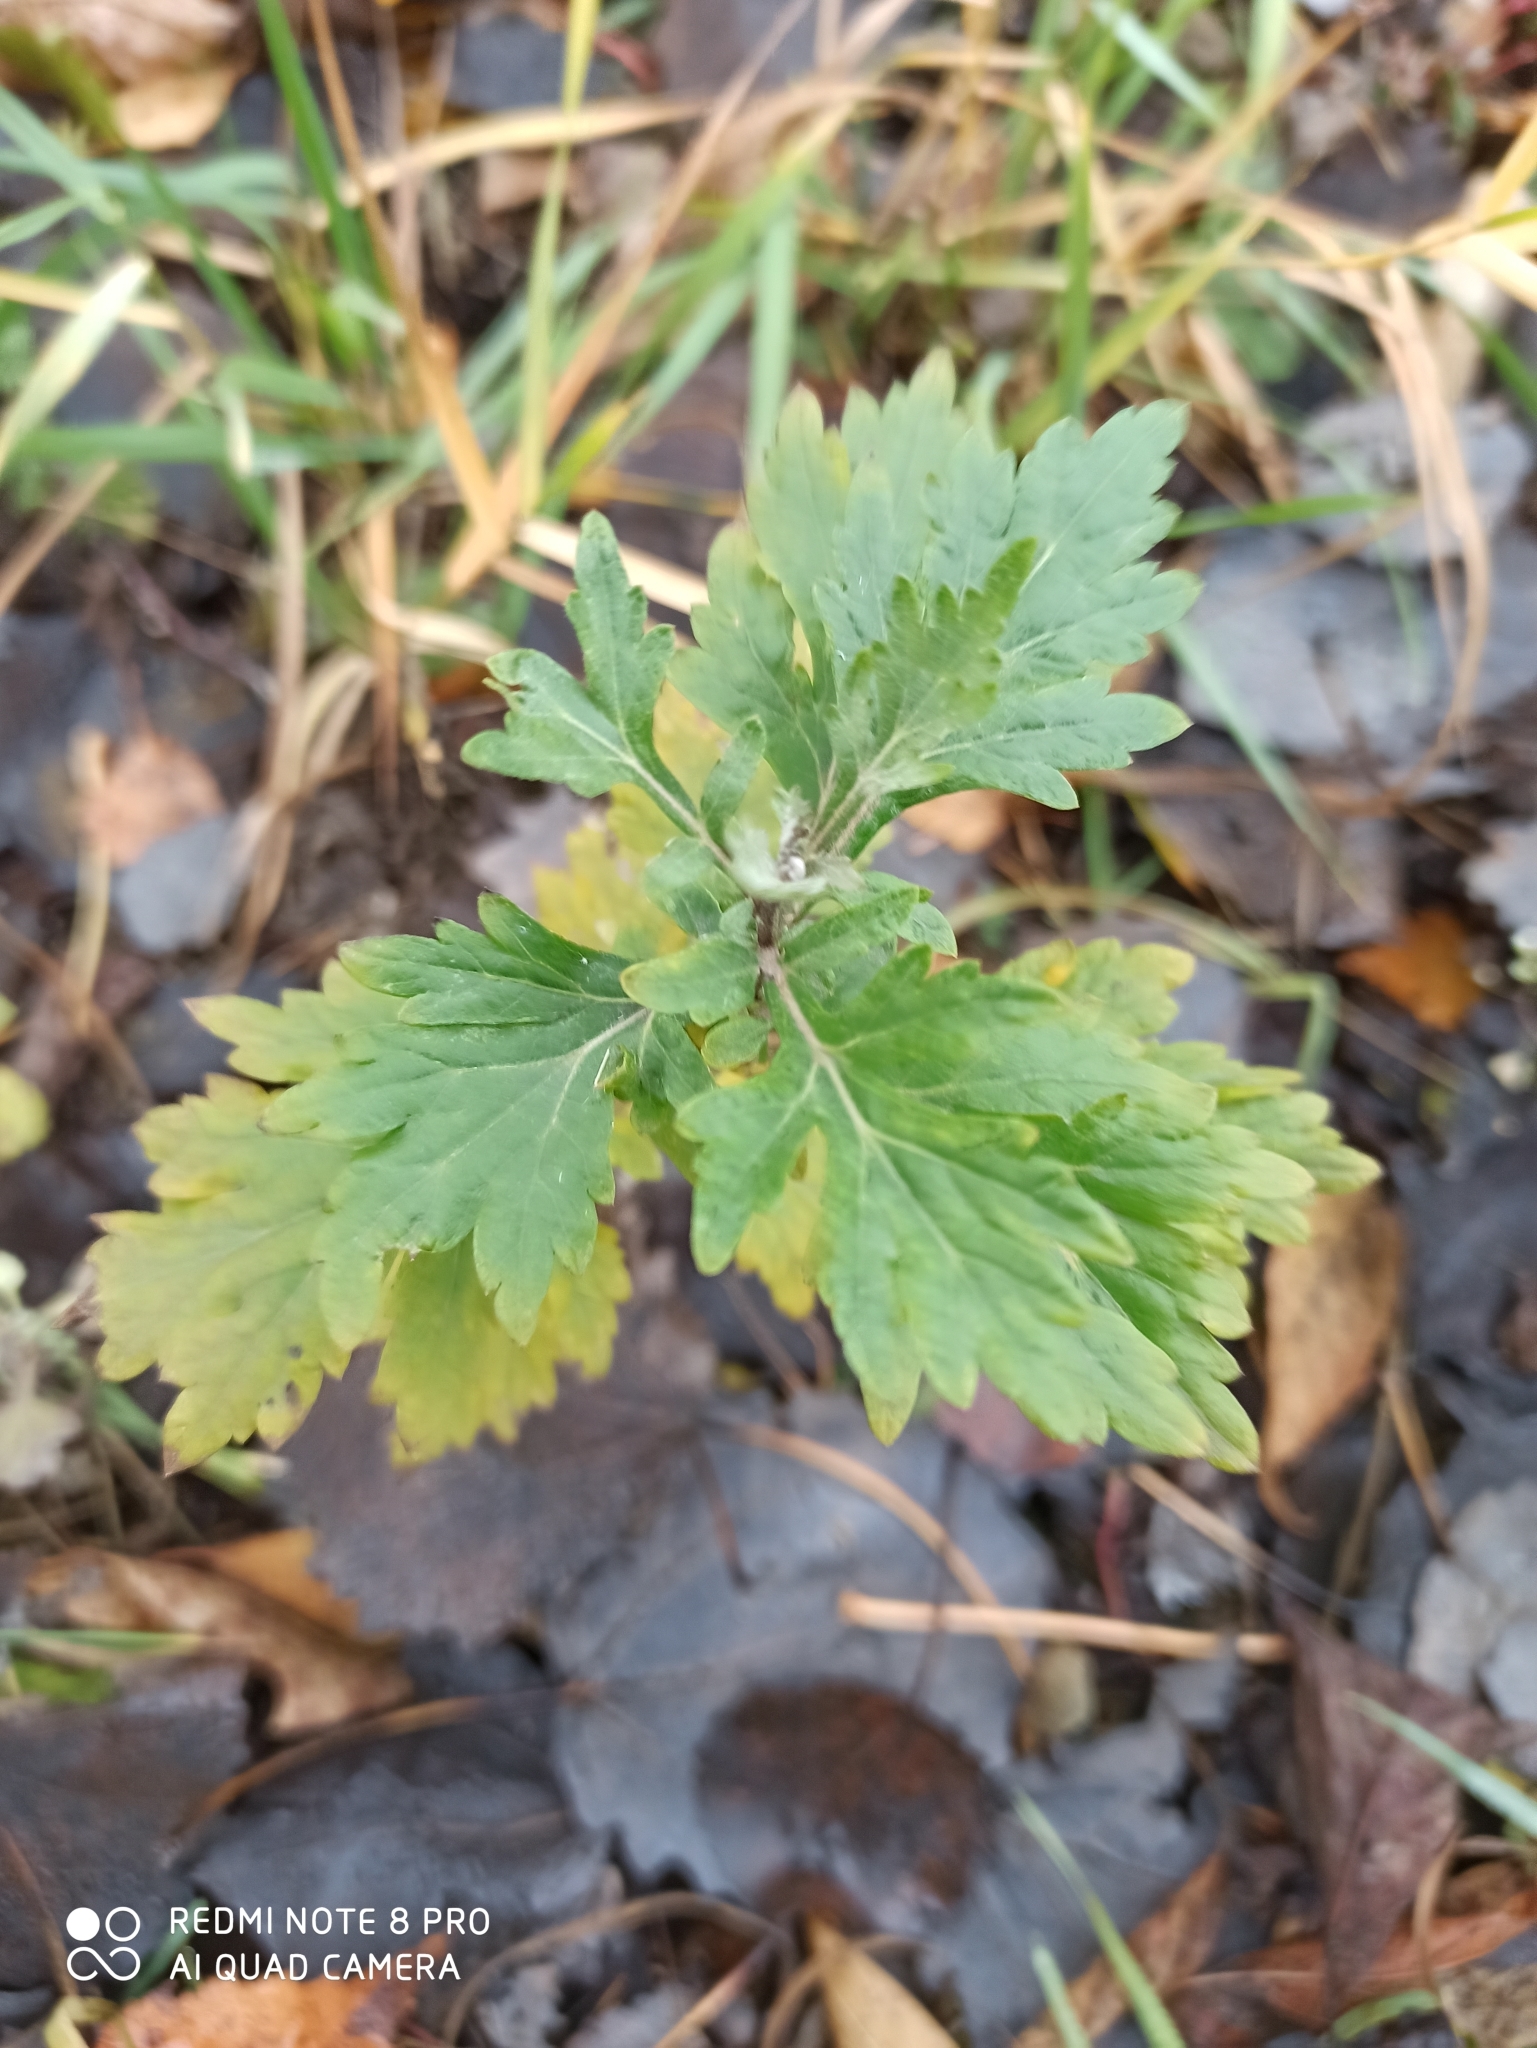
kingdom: Plantae
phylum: Tracheophyta
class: Magnoliopsida
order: Asterales
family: Asteraceae
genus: Artemisia
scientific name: Artemisia vulgaris
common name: Mugwort
